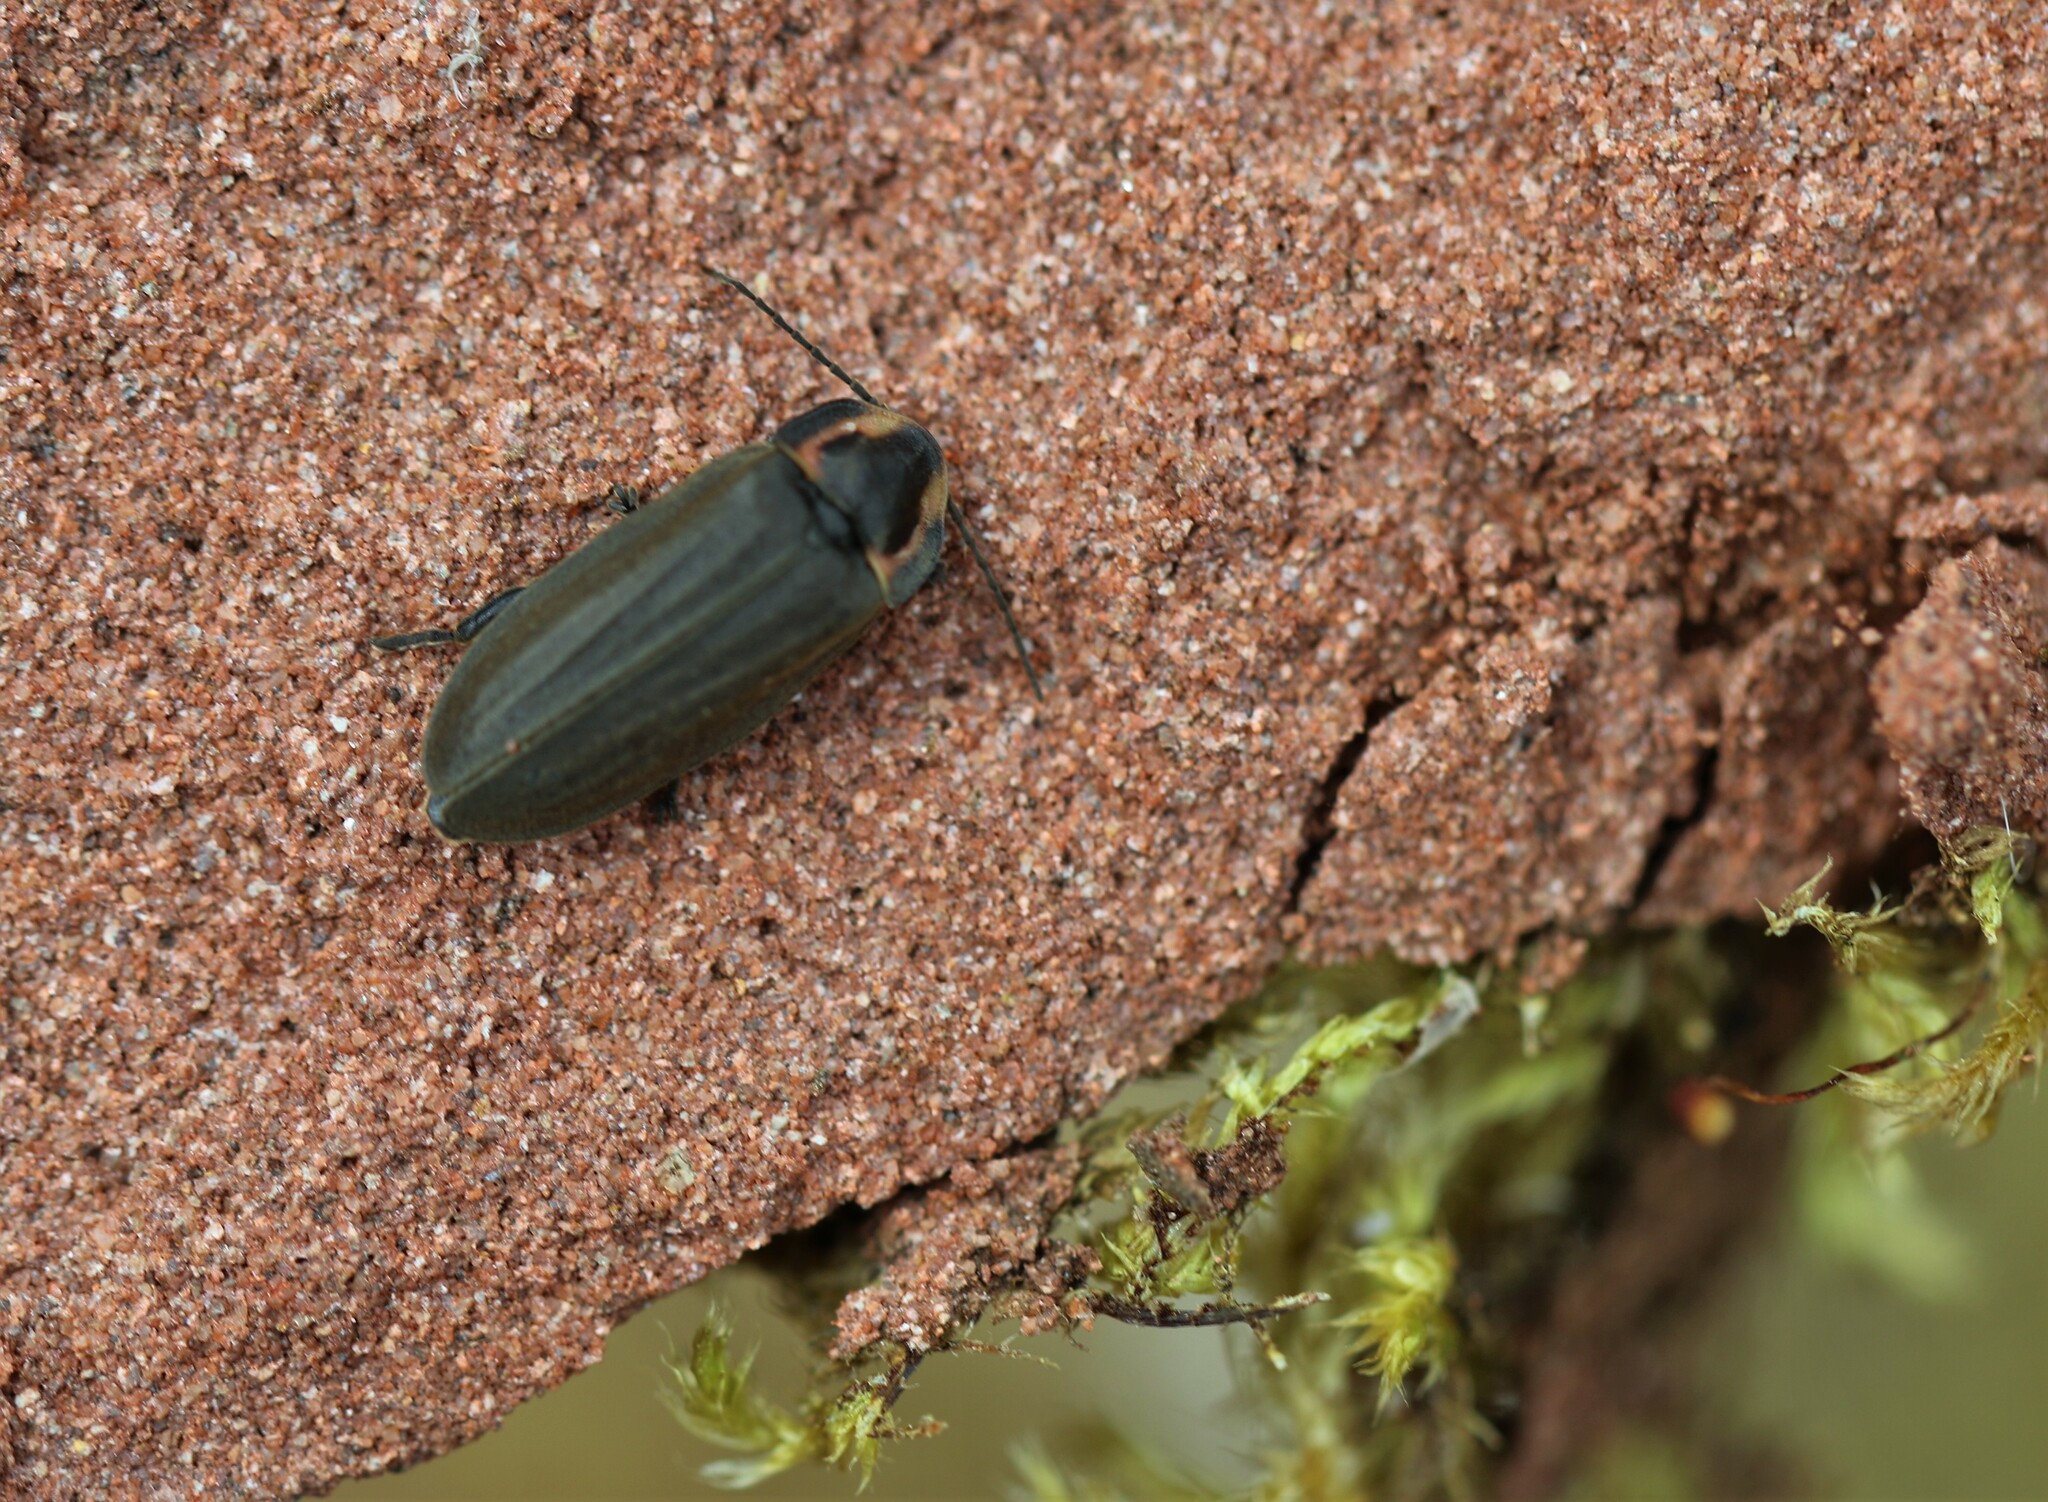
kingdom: Animalia
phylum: Arthropoda
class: Insecta
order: Coleoptera
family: Lampyridae
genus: Photinus
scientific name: Photinus corrusca
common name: Winter firefly
